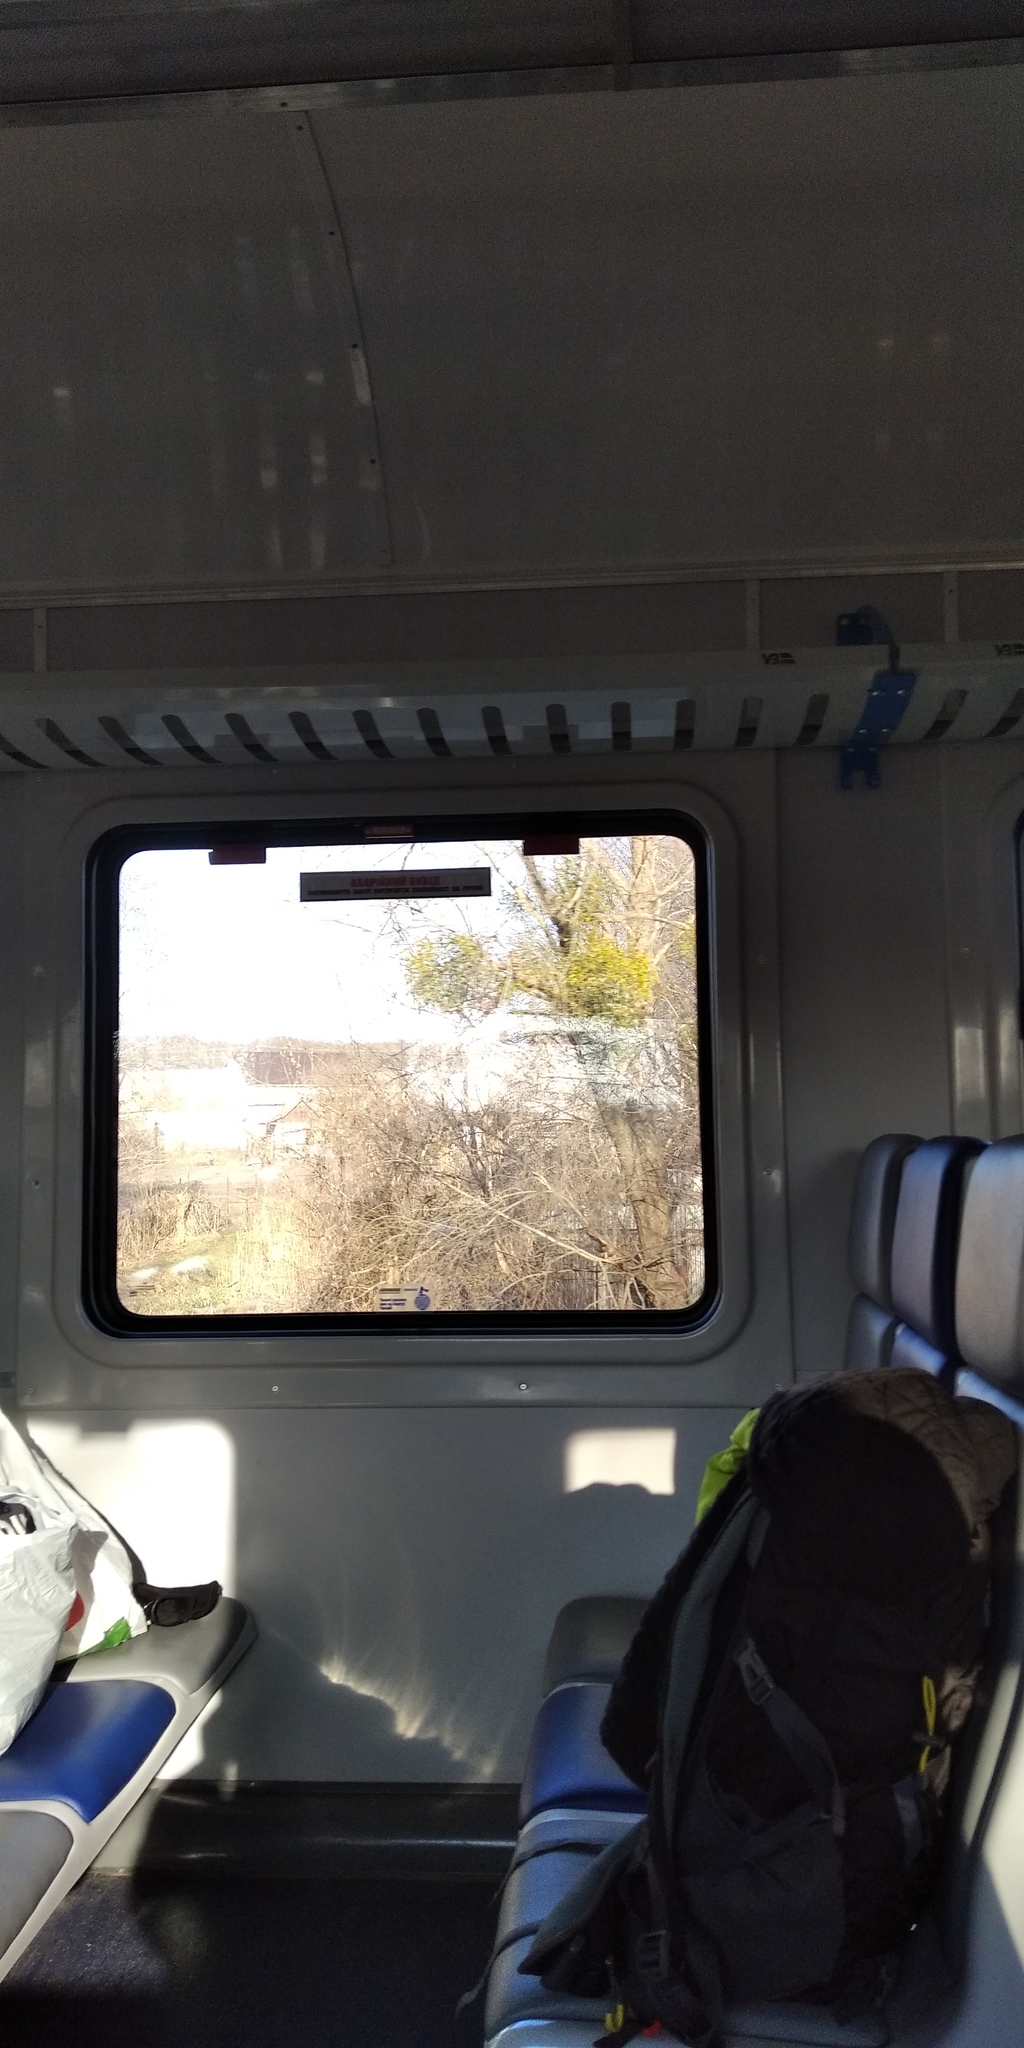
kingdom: Plantae
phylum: Tracheophyta
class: Magnoliopsida
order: Santalales
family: Viscaceae
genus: Viscum
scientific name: Viscum album
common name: Mistletoe
